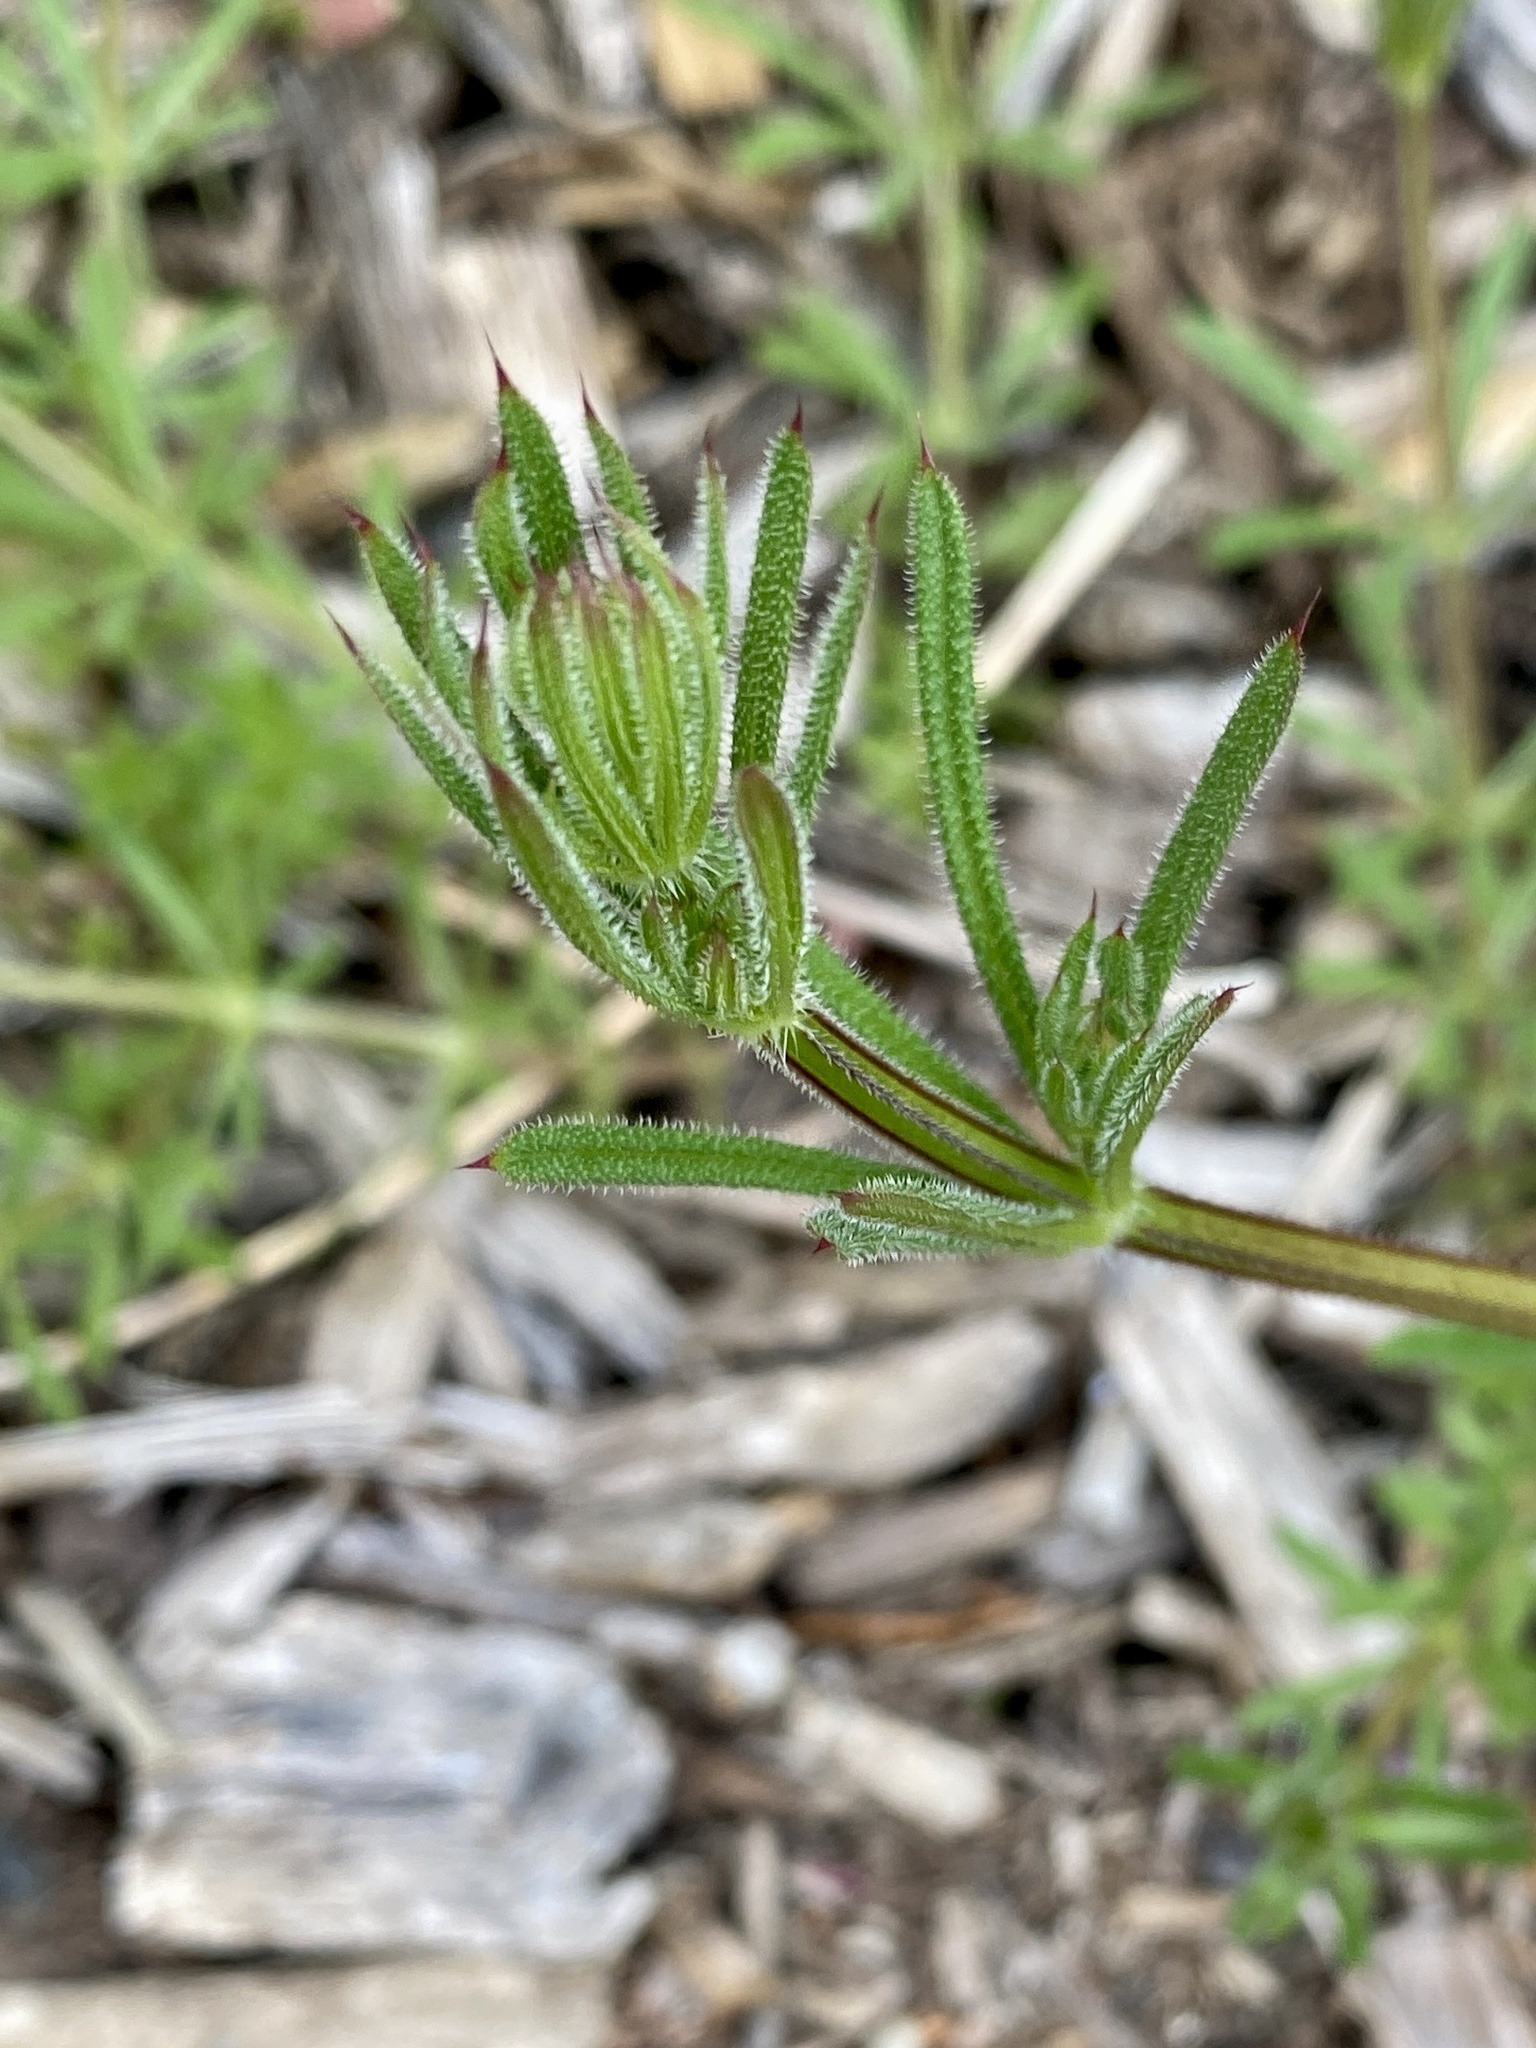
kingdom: Plantae
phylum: Tracheophyta
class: Magnoliopsida
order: Gentianales
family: Rubiaceae
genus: Galium
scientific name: Galium aparine
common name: Cleavers
